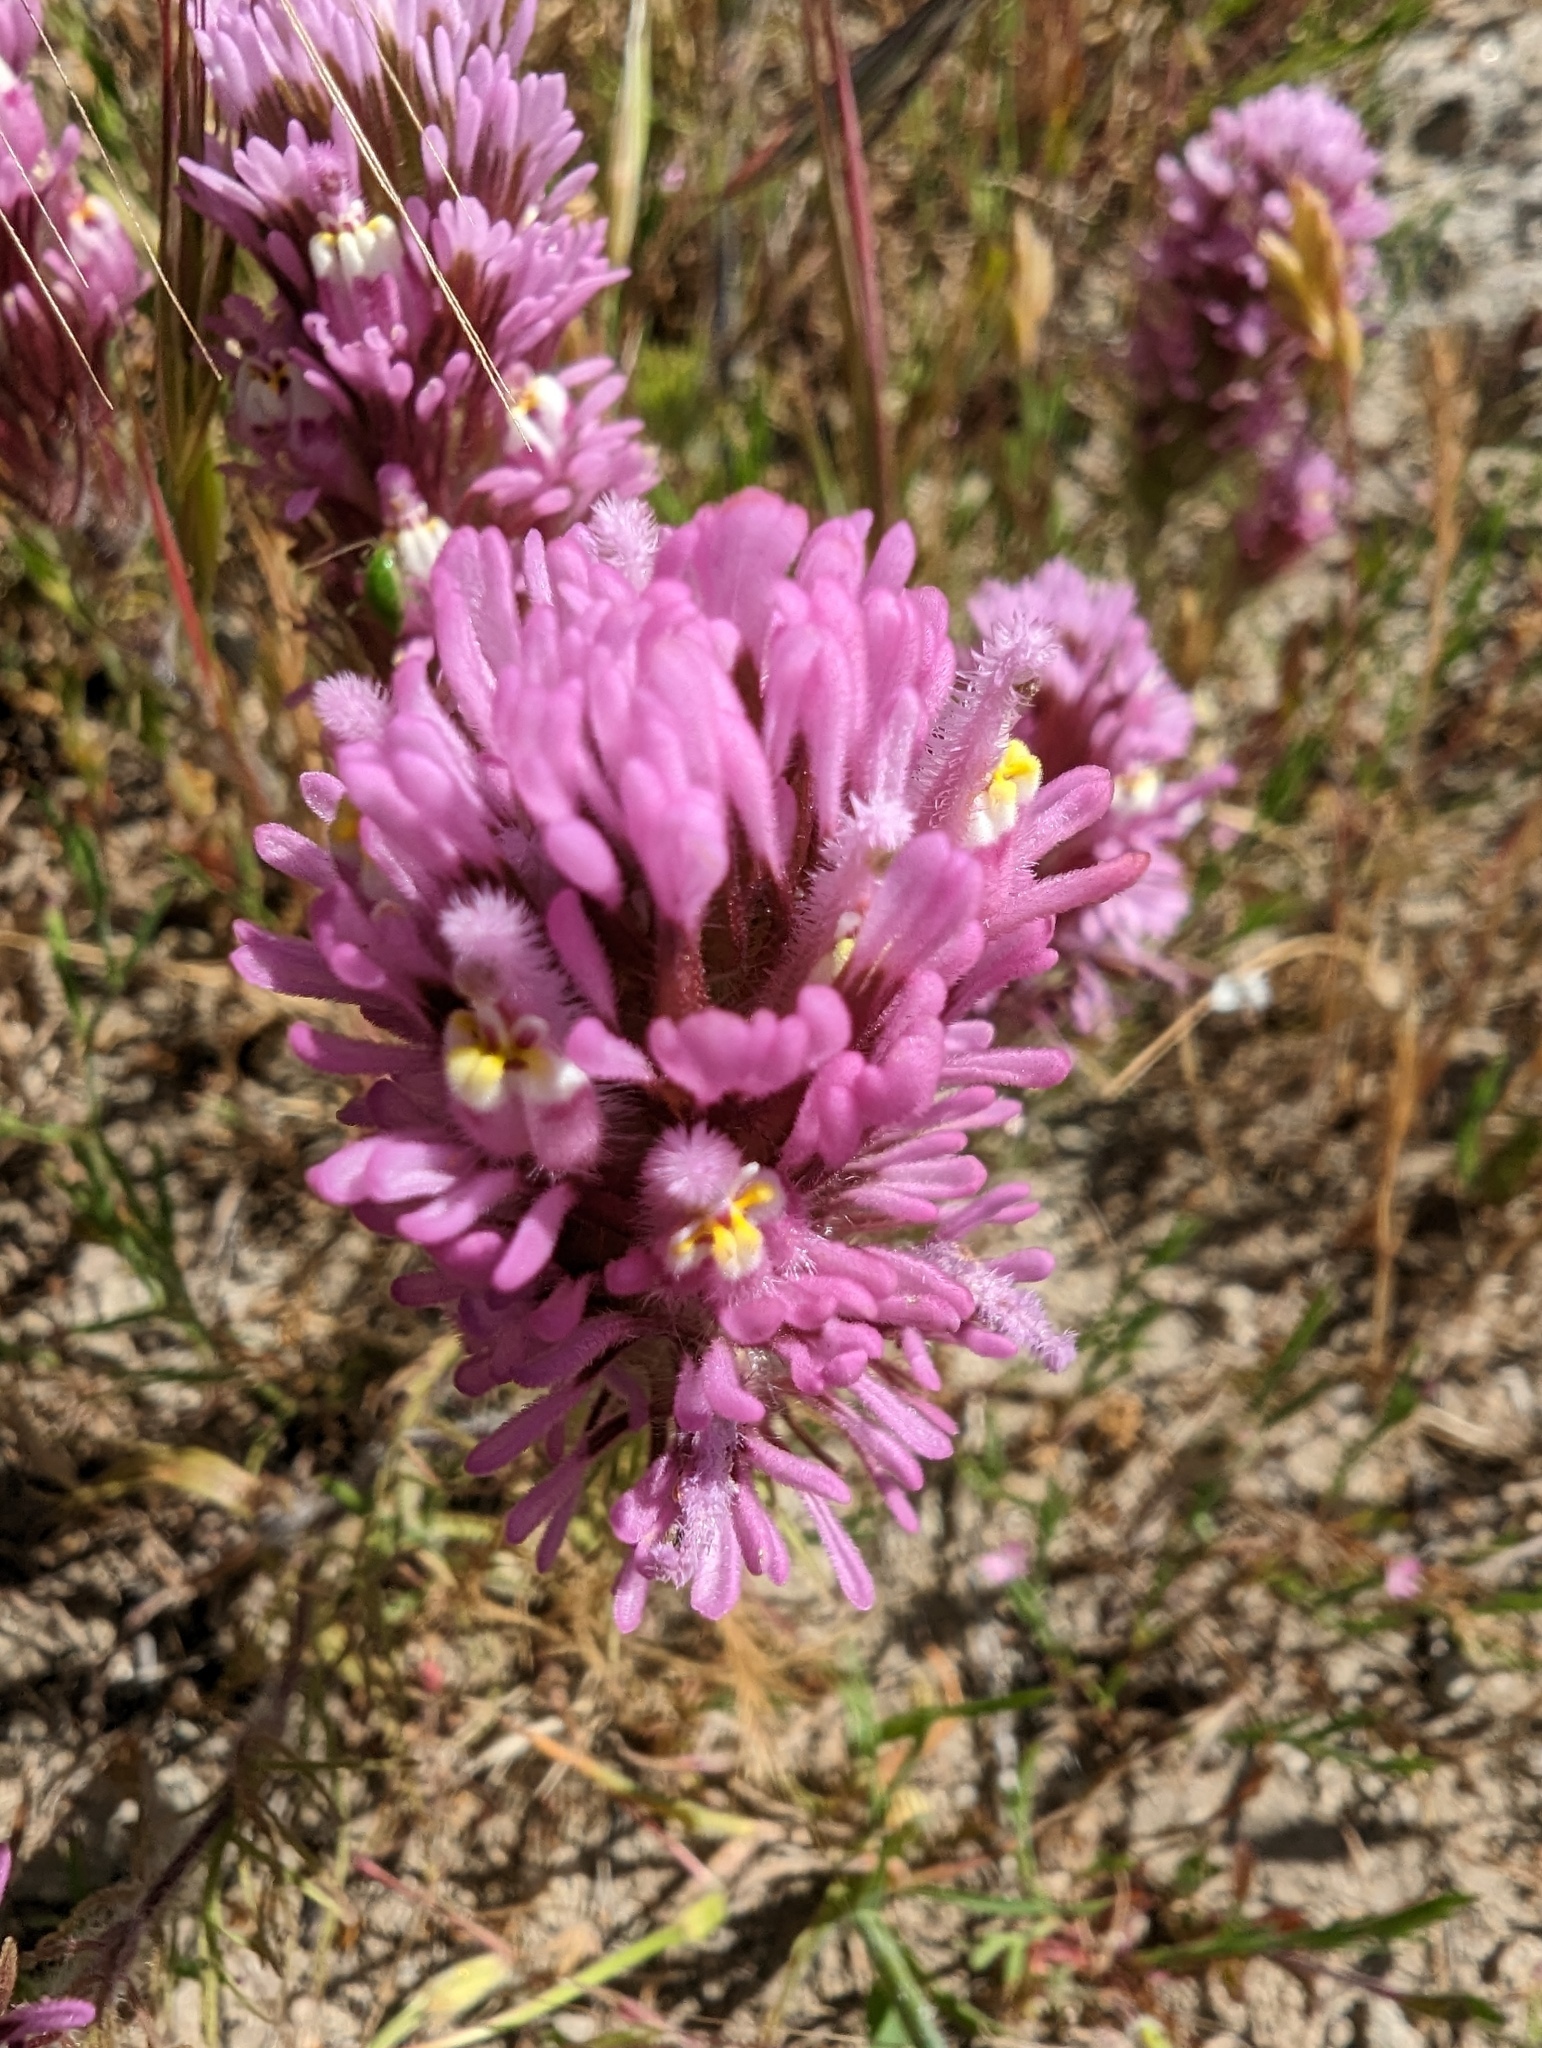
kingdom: Plantae
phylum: Tracheophyta
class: Magnoliopsida
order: Lamiales
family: Orobanchaceae
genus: Castilleja
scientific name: Castilleja exserta
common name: Purple owl-clover
